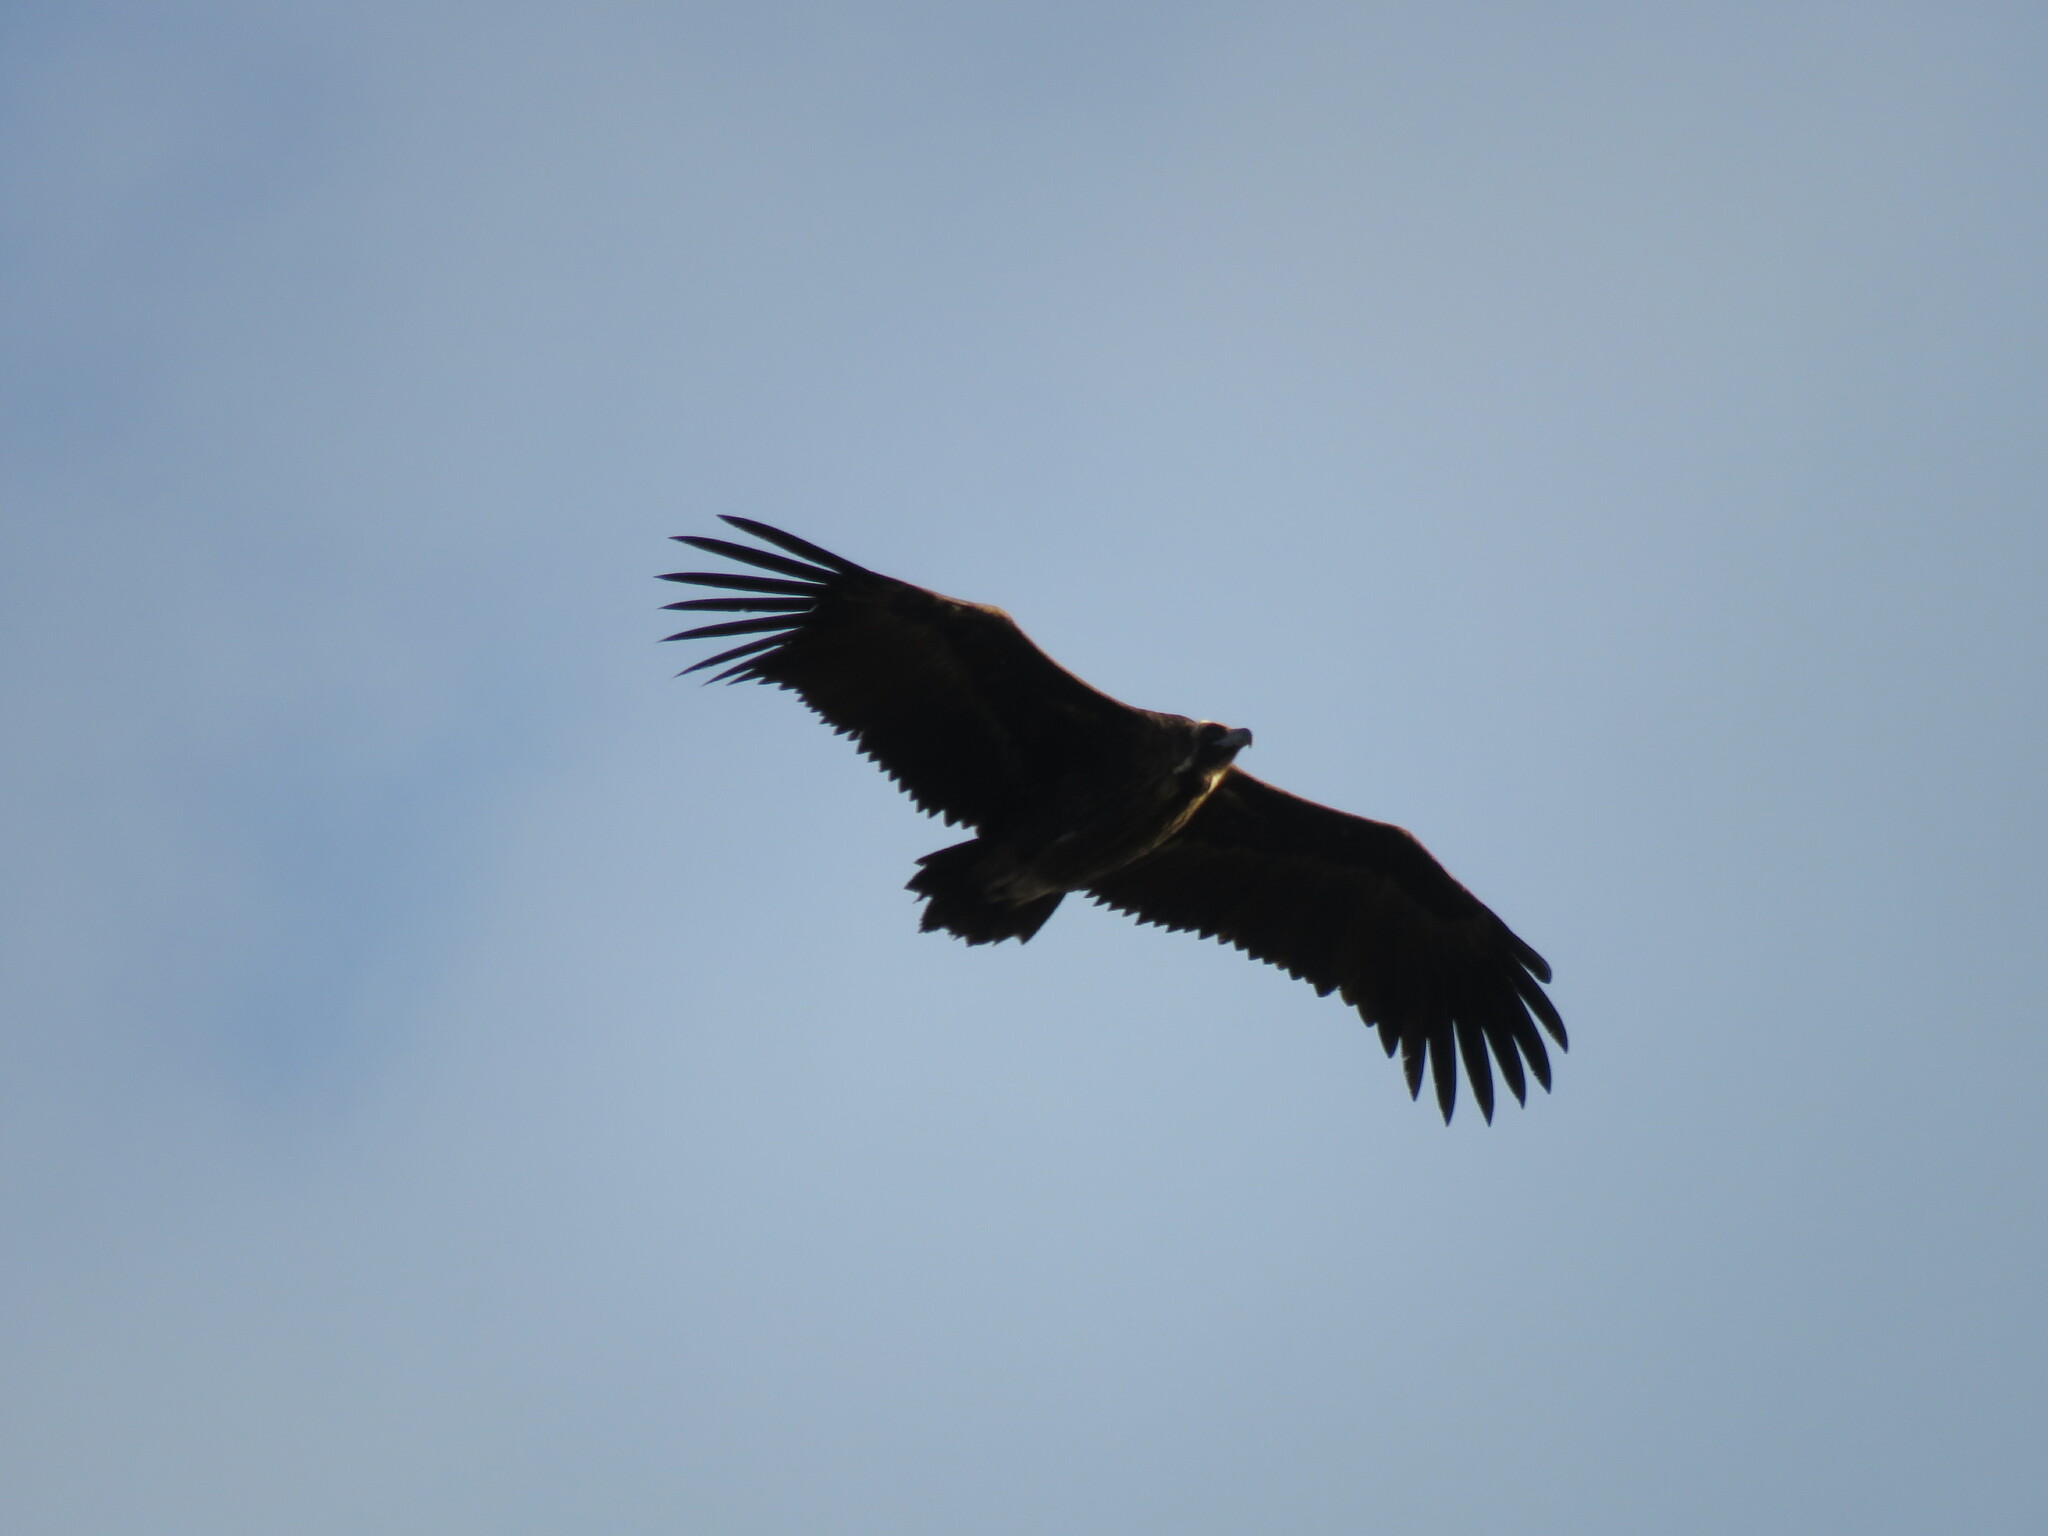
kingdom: Animalia
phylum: Chordata
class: Aves
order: Accipitriformes
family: Accipitridae
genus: Aegypius
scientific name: Aegypius monachus
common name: Cinereous vulture
